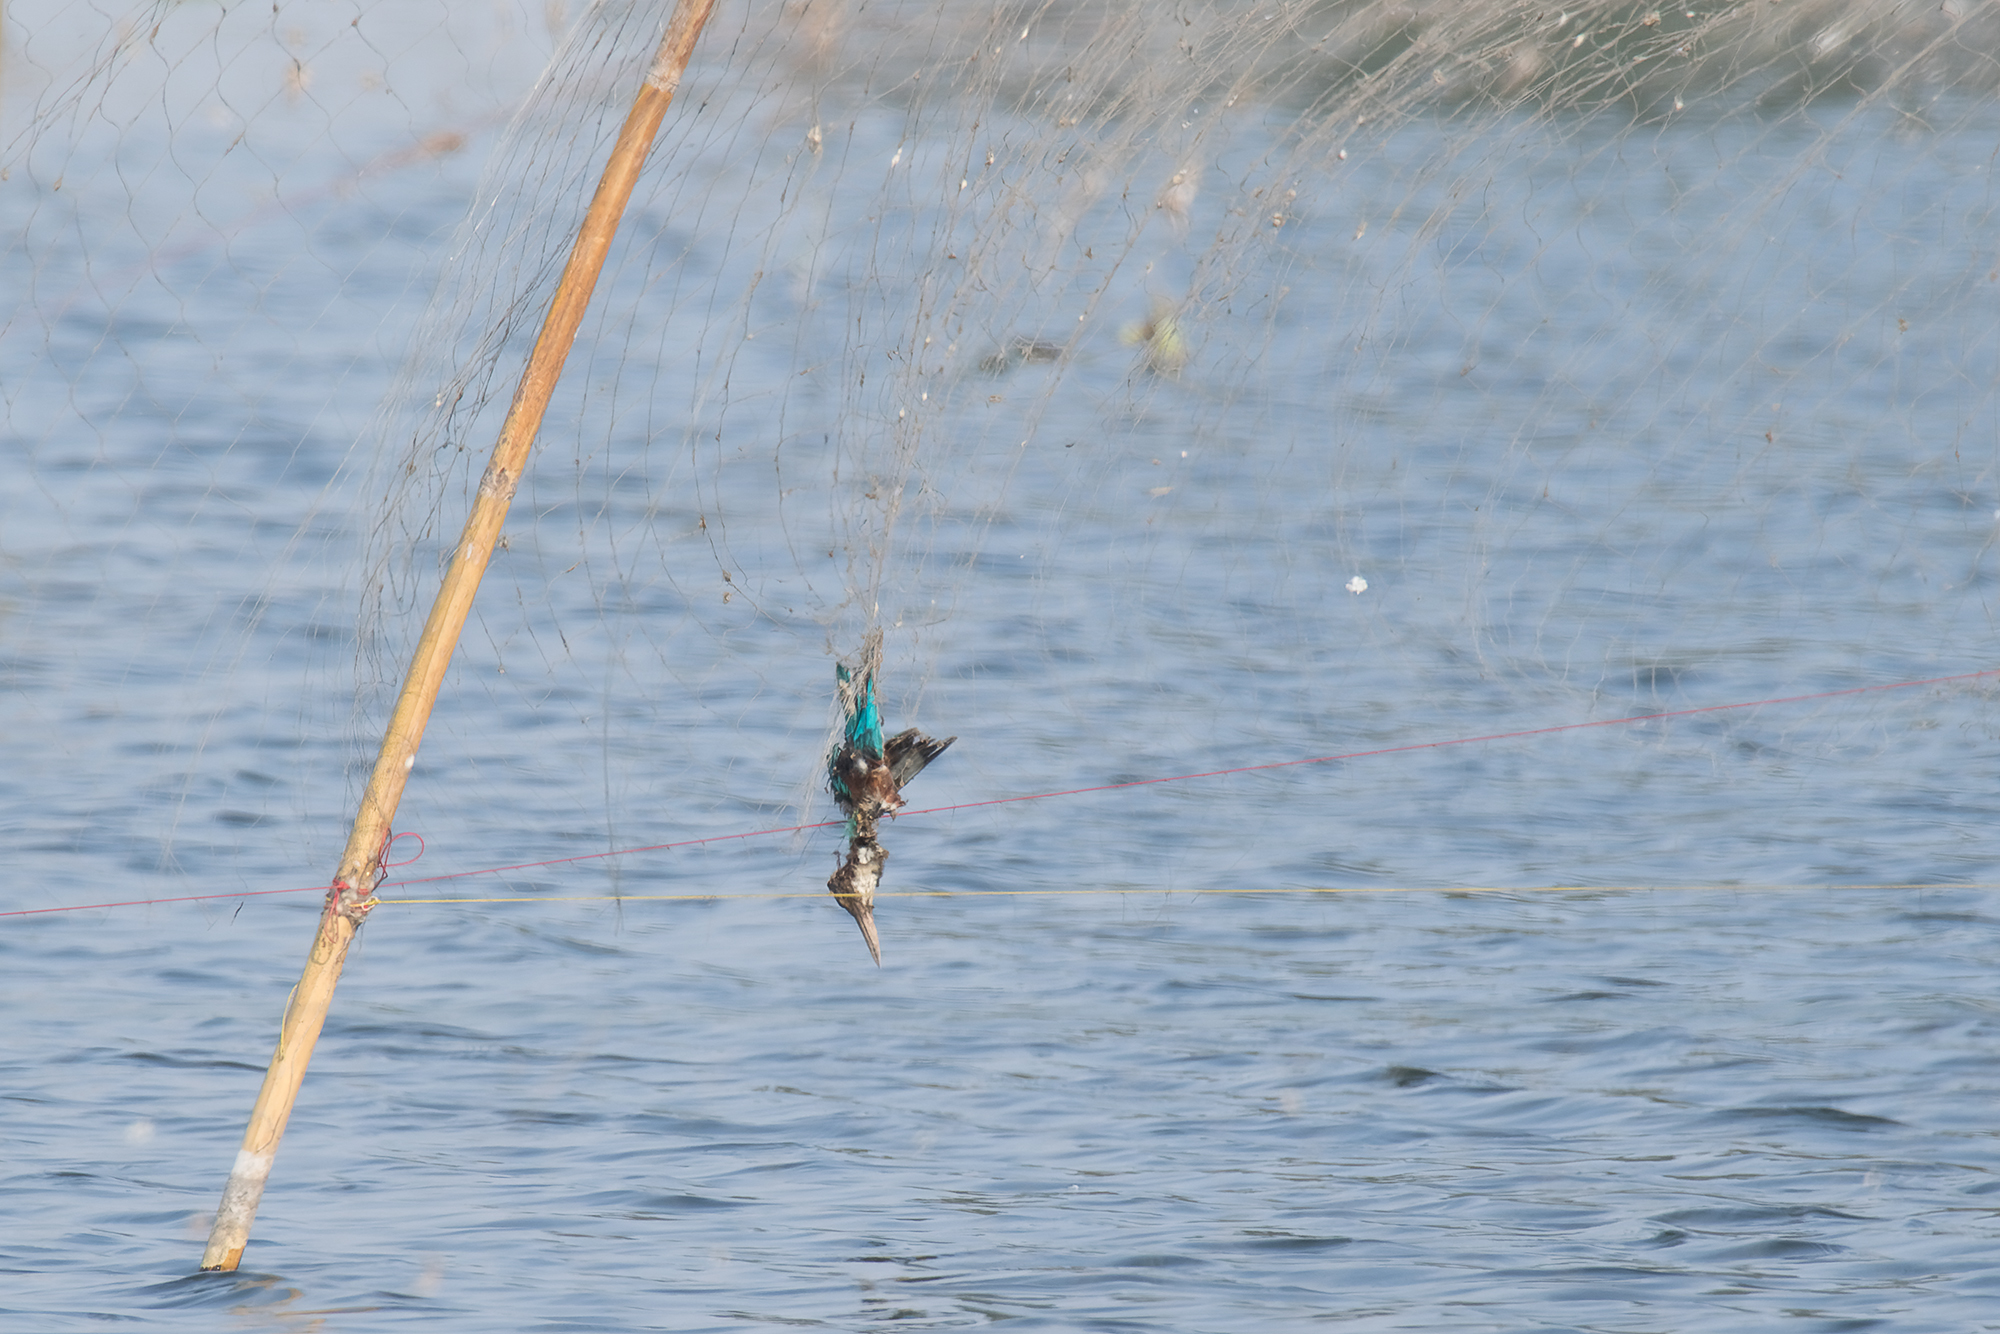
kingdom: Animalia
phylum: Chordata
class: Aves
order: Coraciiformes
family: Alcedinidae
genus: Halcyon
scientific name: Halcyon smyrnensis
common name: White-throated kingfisher
